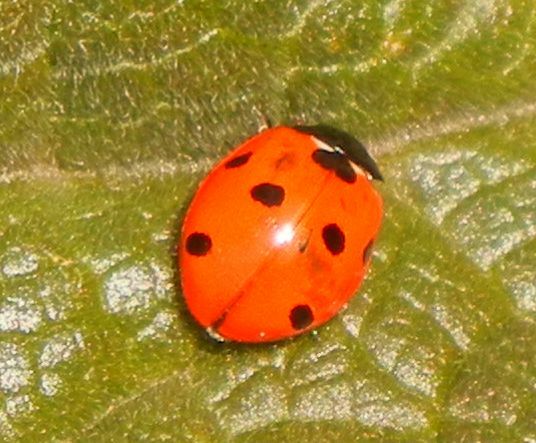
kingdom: Animalia
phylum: Arthropoda
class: Insecta
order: Coleoptera
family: Coccinellidae
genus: Coccinella
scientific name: Coccinella septempunctata
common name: Sevenspotted lady beetle
